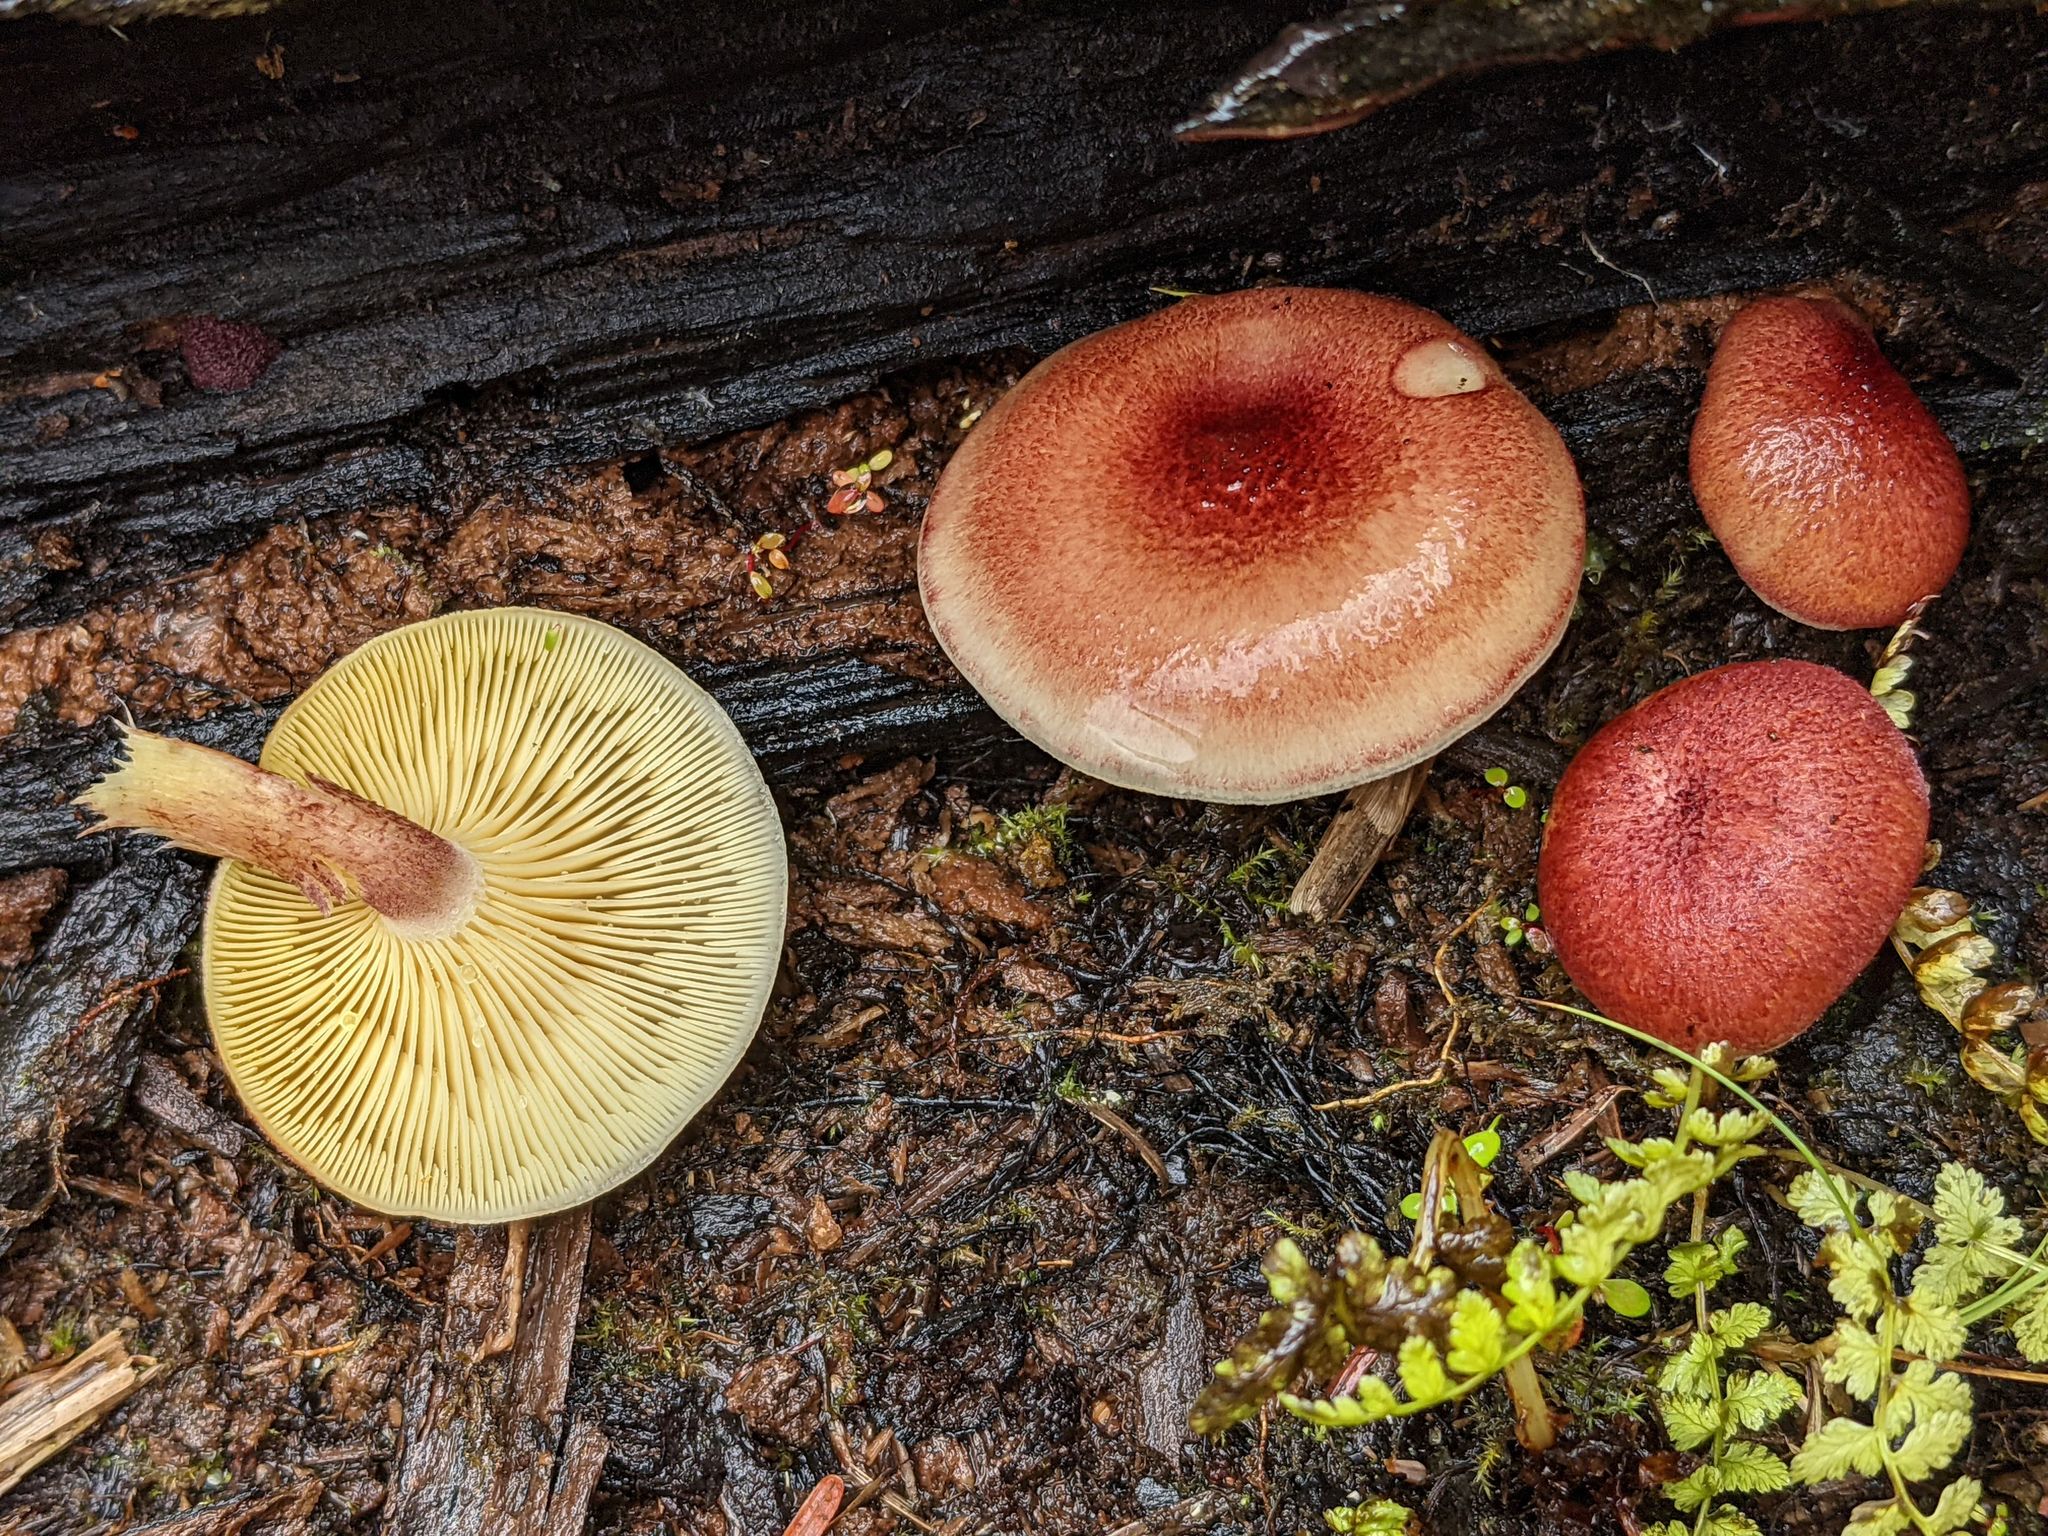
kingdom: Fungi
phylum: Basidiomycota
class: Agaricomycetes
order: Agaricales
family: Tricholomataceae
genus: Tricholomopsis
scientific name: Tricholomopsis rutilans
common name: Plums and custard
